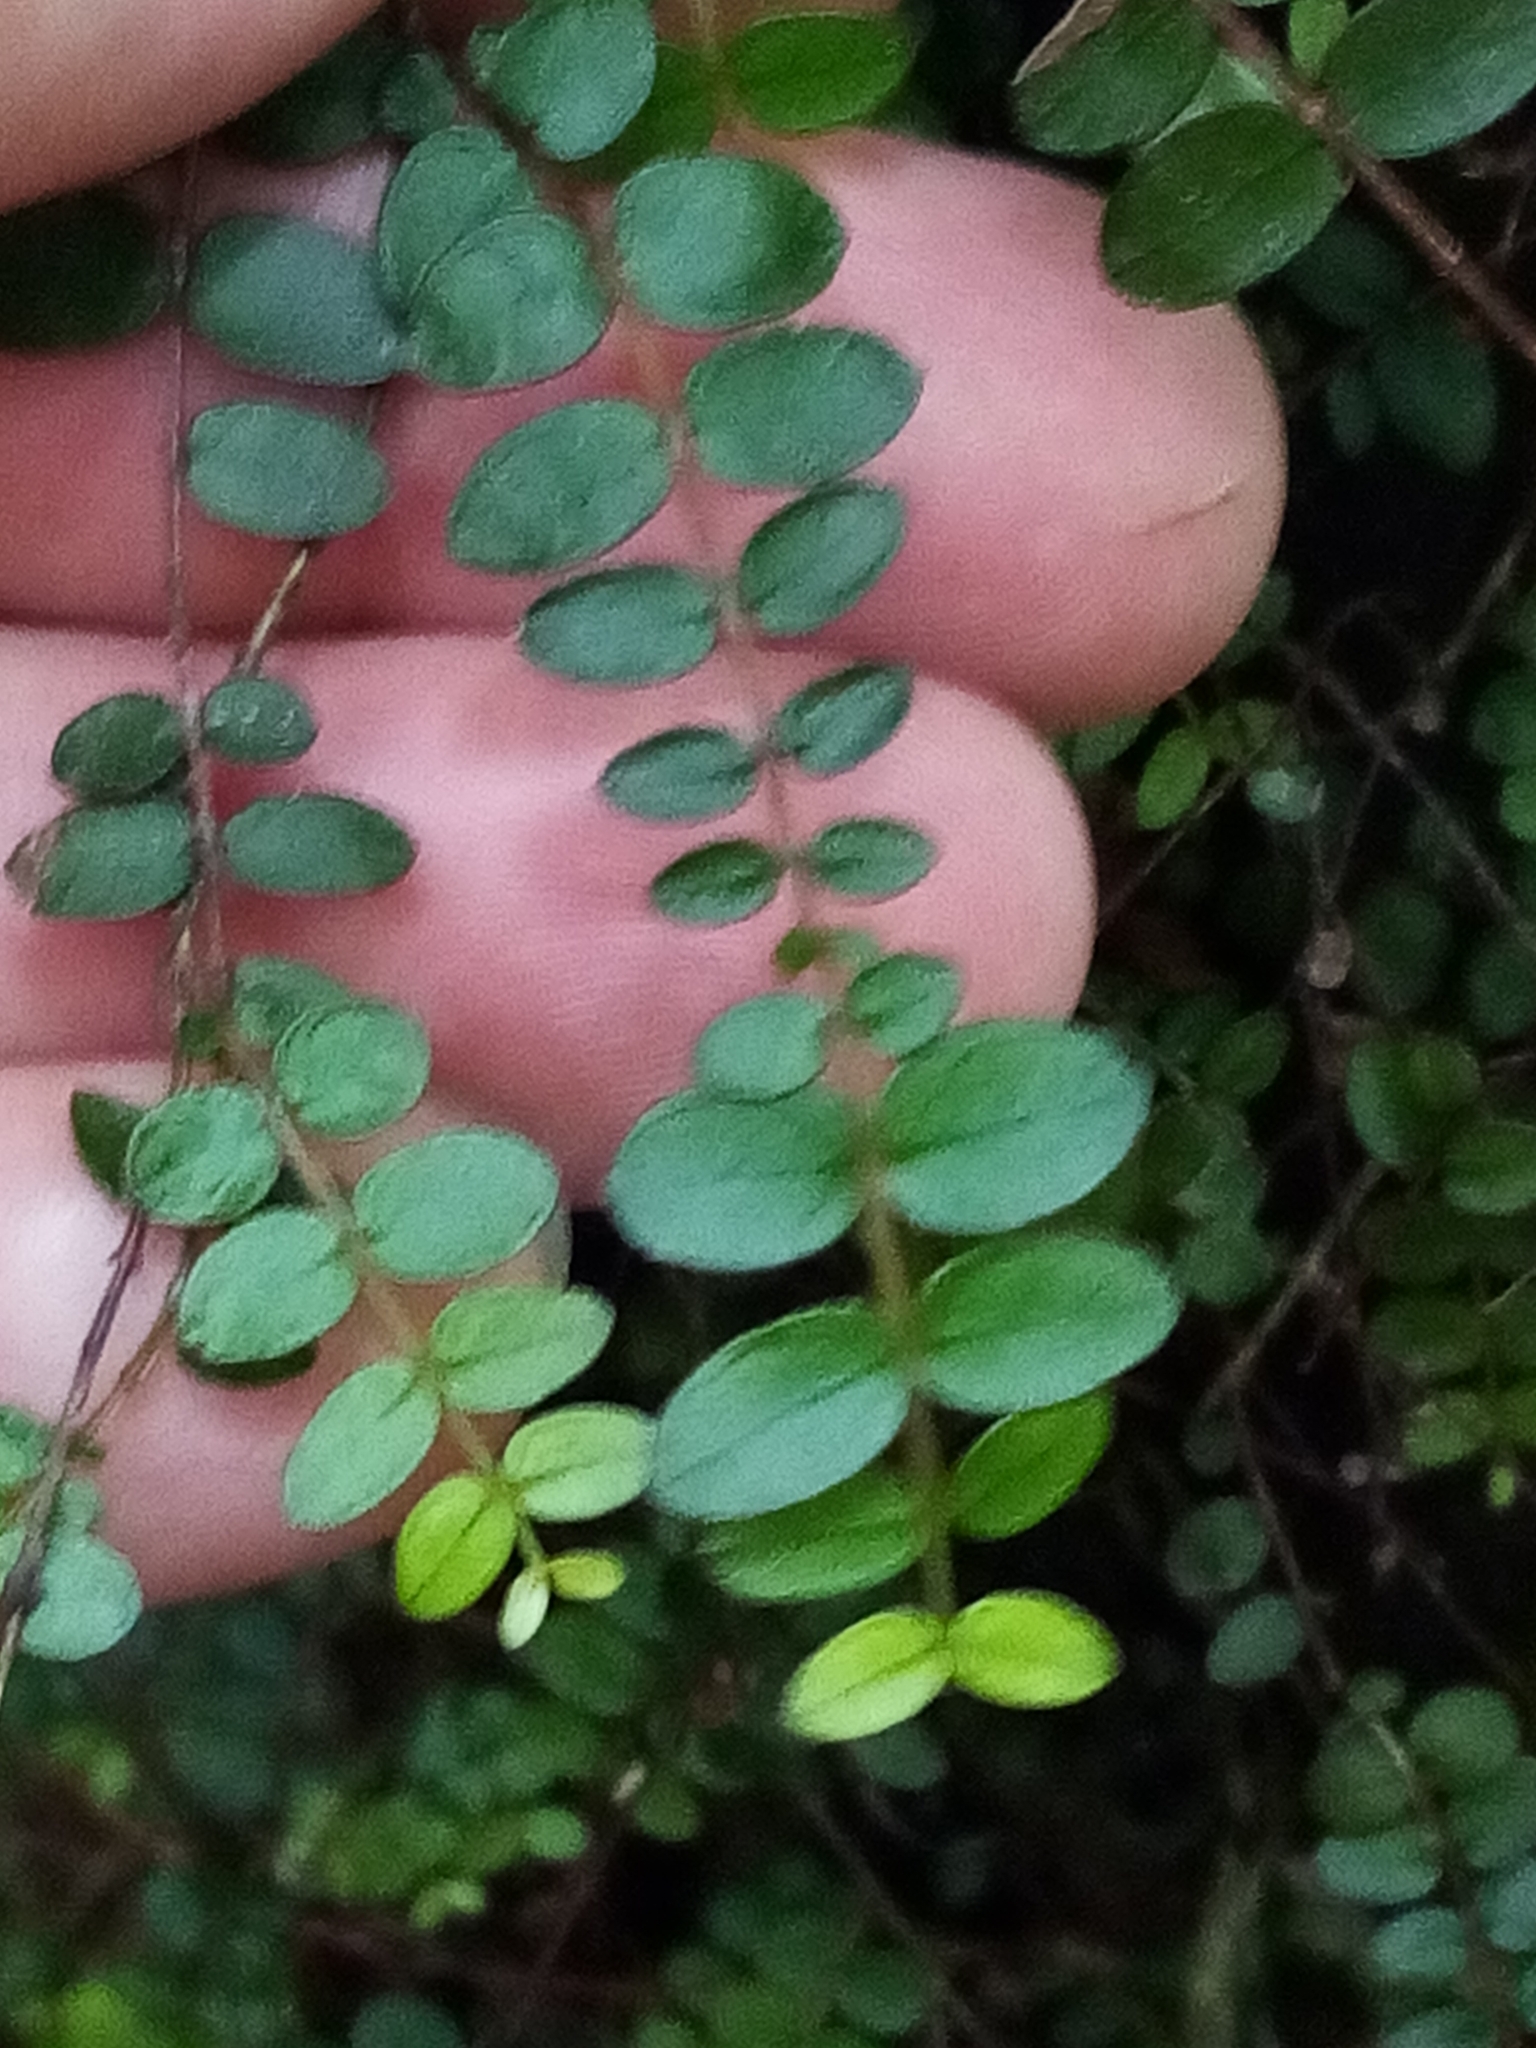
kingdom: Plantae
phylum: Tracheophyta
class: Magnoliopsida
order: Myrtales
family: Myrtaceae
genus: Metrosideros
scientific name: Metrosideros diffusa
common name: Small ratavine
